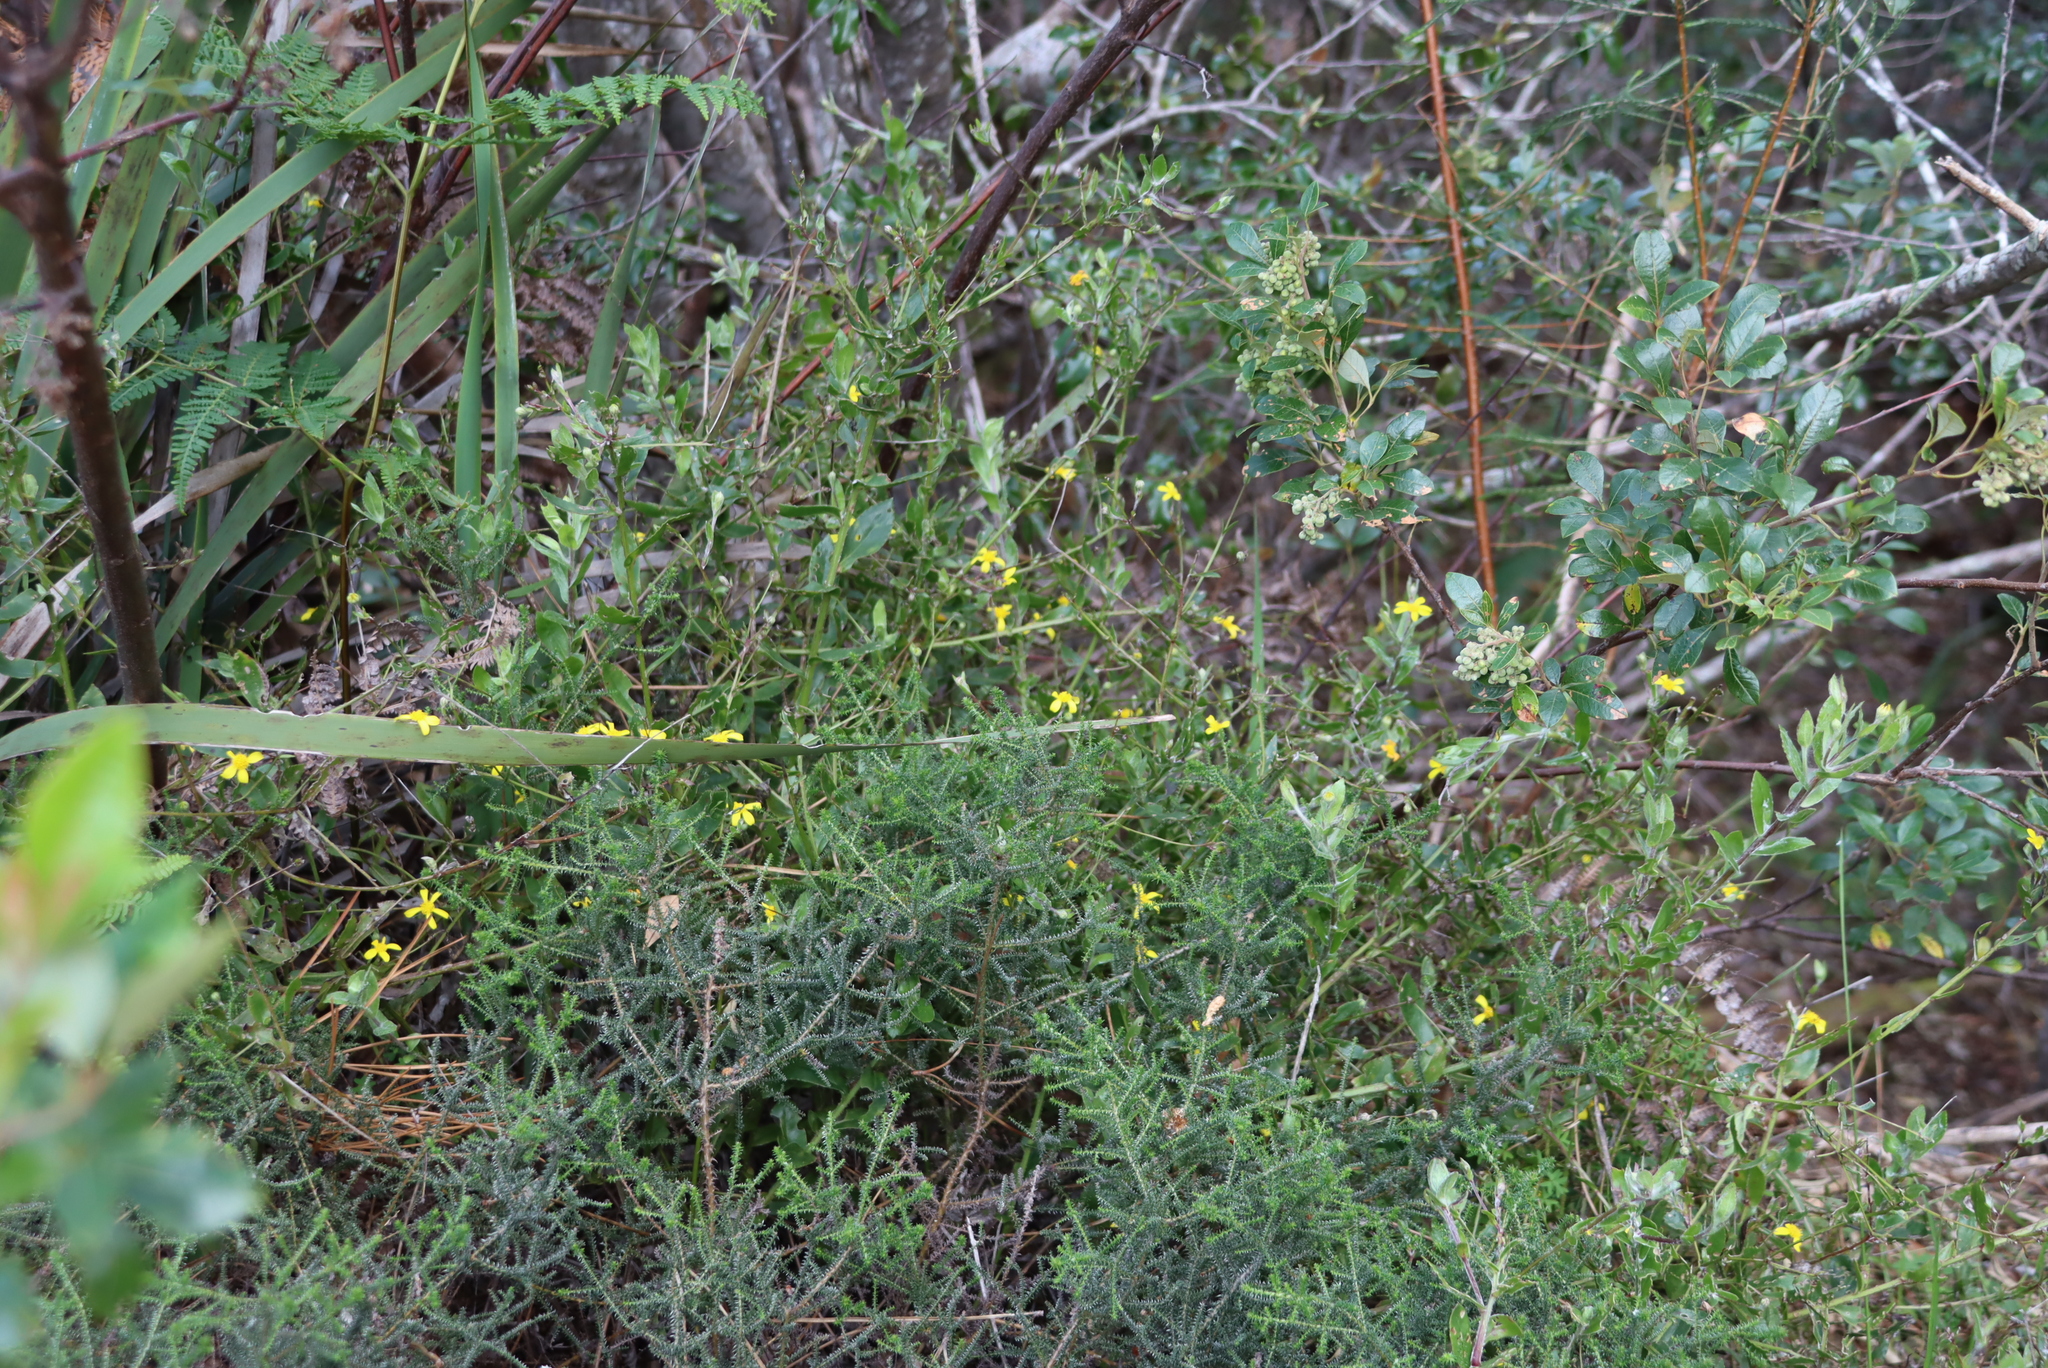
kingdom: Plantae
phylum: Tracheophyta
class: Magnoliopsida
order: Asterales
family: Asteraceae
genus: Osteospermum
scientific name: Osteospermum ciliatum
